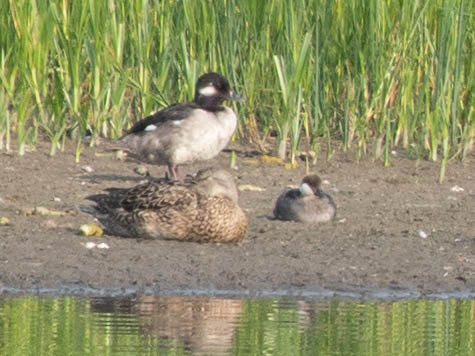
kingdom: Animalia
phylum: Chordata
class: Aves
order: Anseriformes
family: Anatidae
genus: Bucephala
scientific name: Bucephala albeola
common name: Bufflehead
